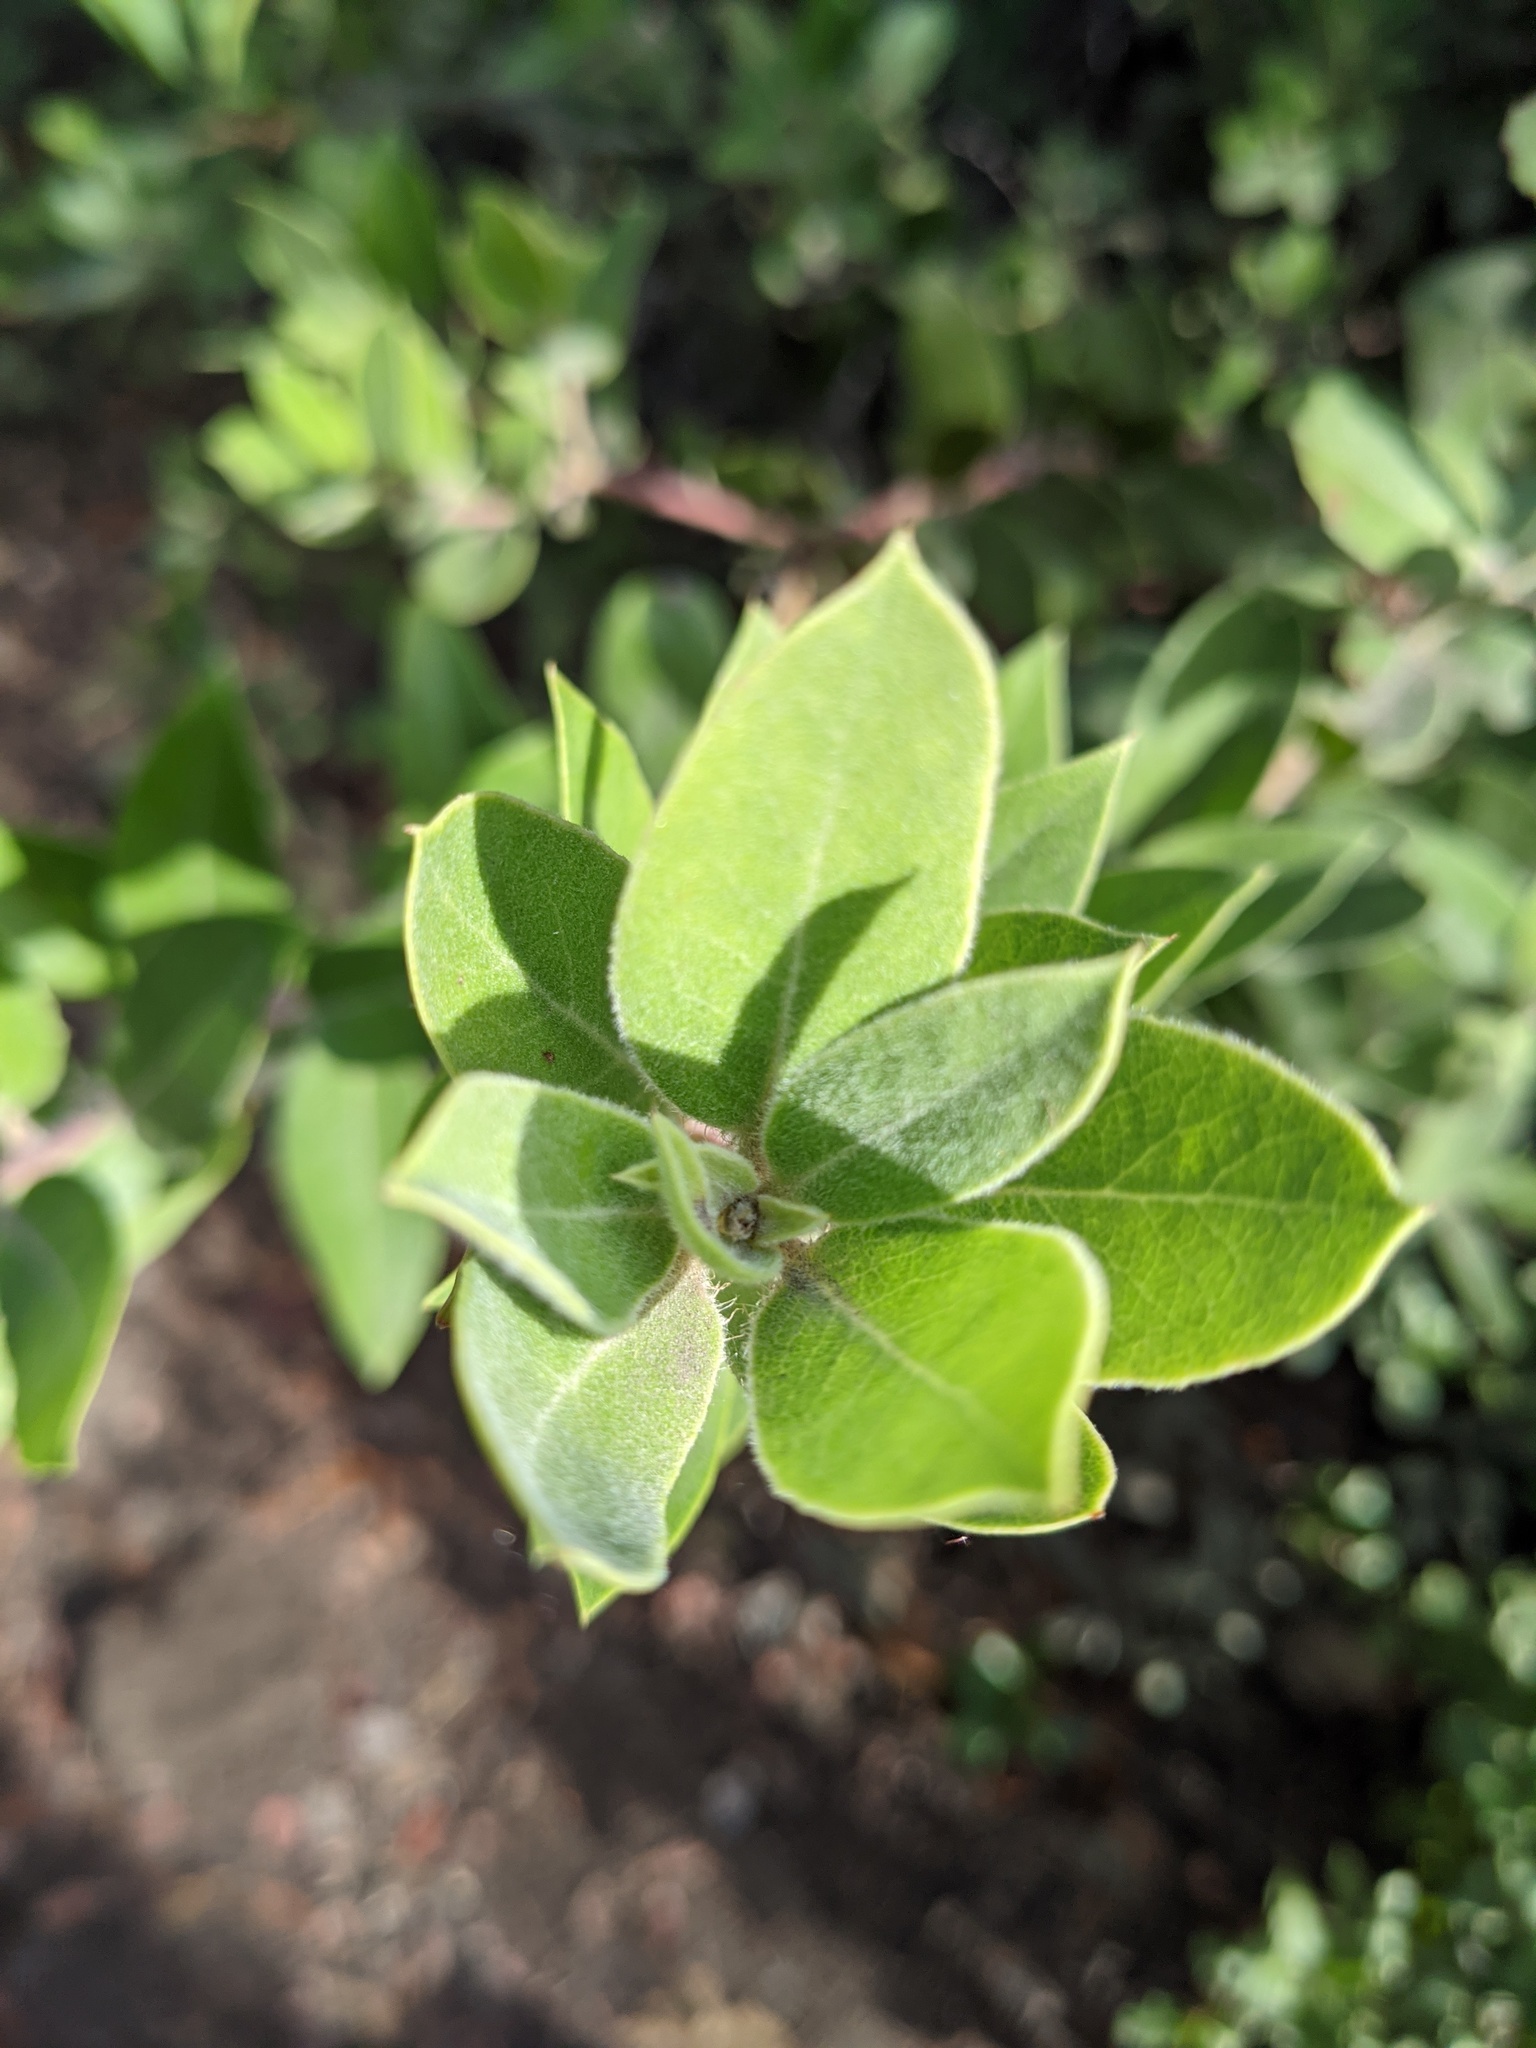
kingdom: Plantae
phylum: Tracheophyta
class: Magnoliopsida
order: Ericales
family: Ericaceae
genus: Arctostaphylos
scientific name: Arctostaphylos crustacea
